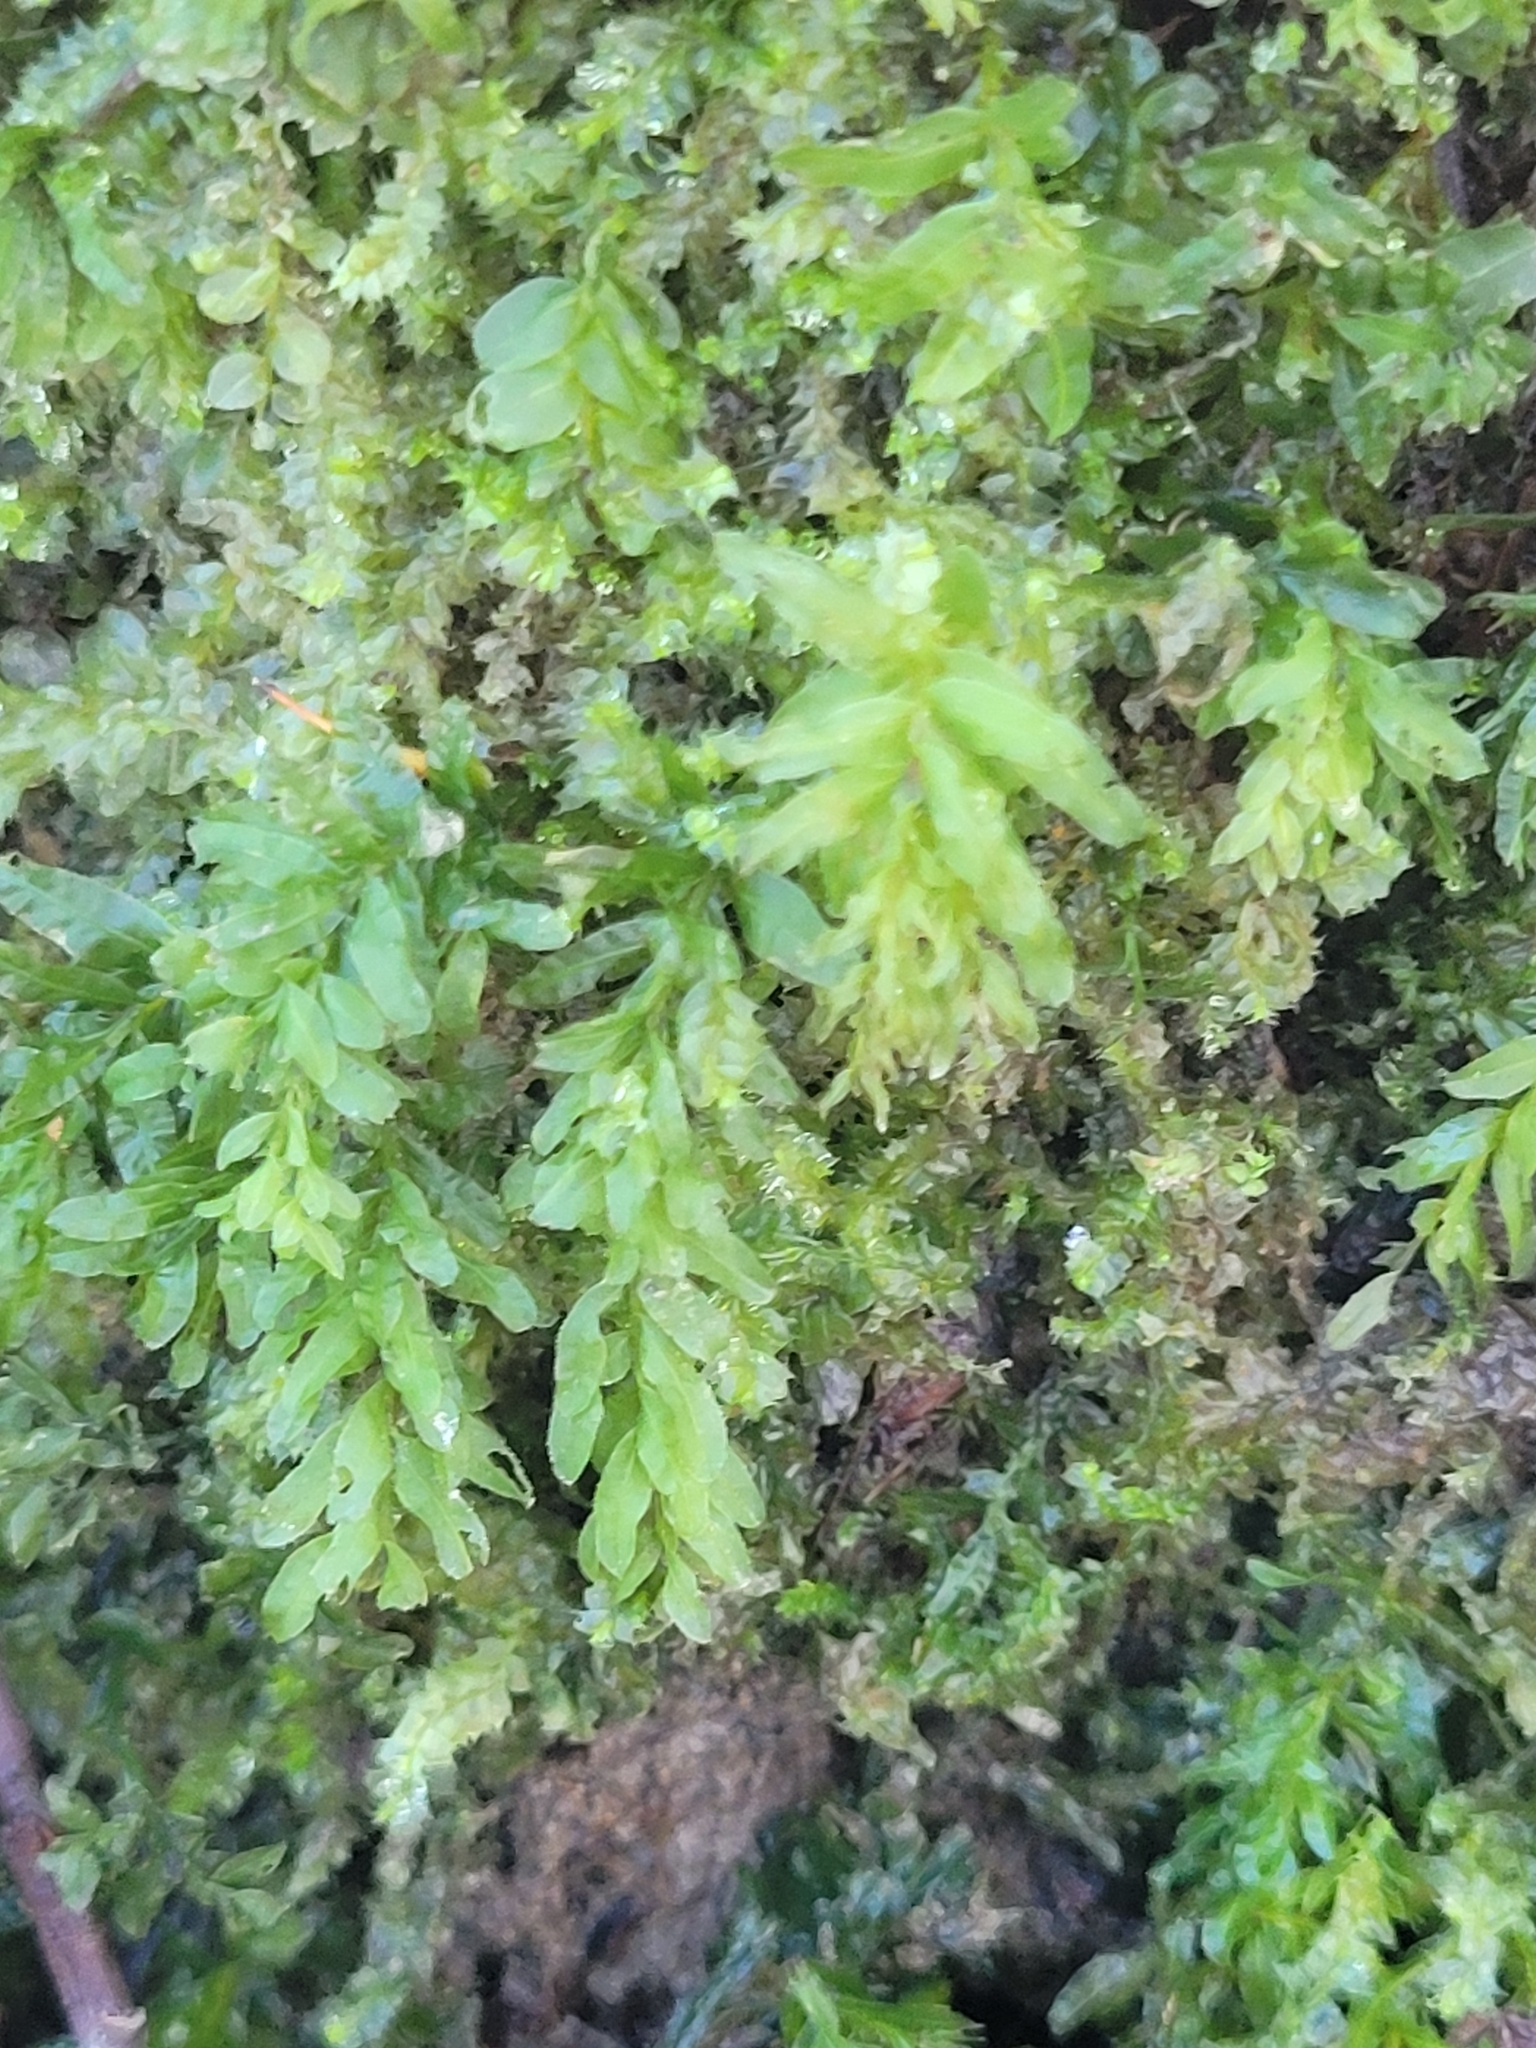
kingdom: Plantae
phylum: Bryophyta
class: Bryopsida
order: Bryales
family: Mniaceae
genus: Plagiomnium
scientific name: Plagiomnium undulatum
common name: Hart's-tongue thyme-moss
